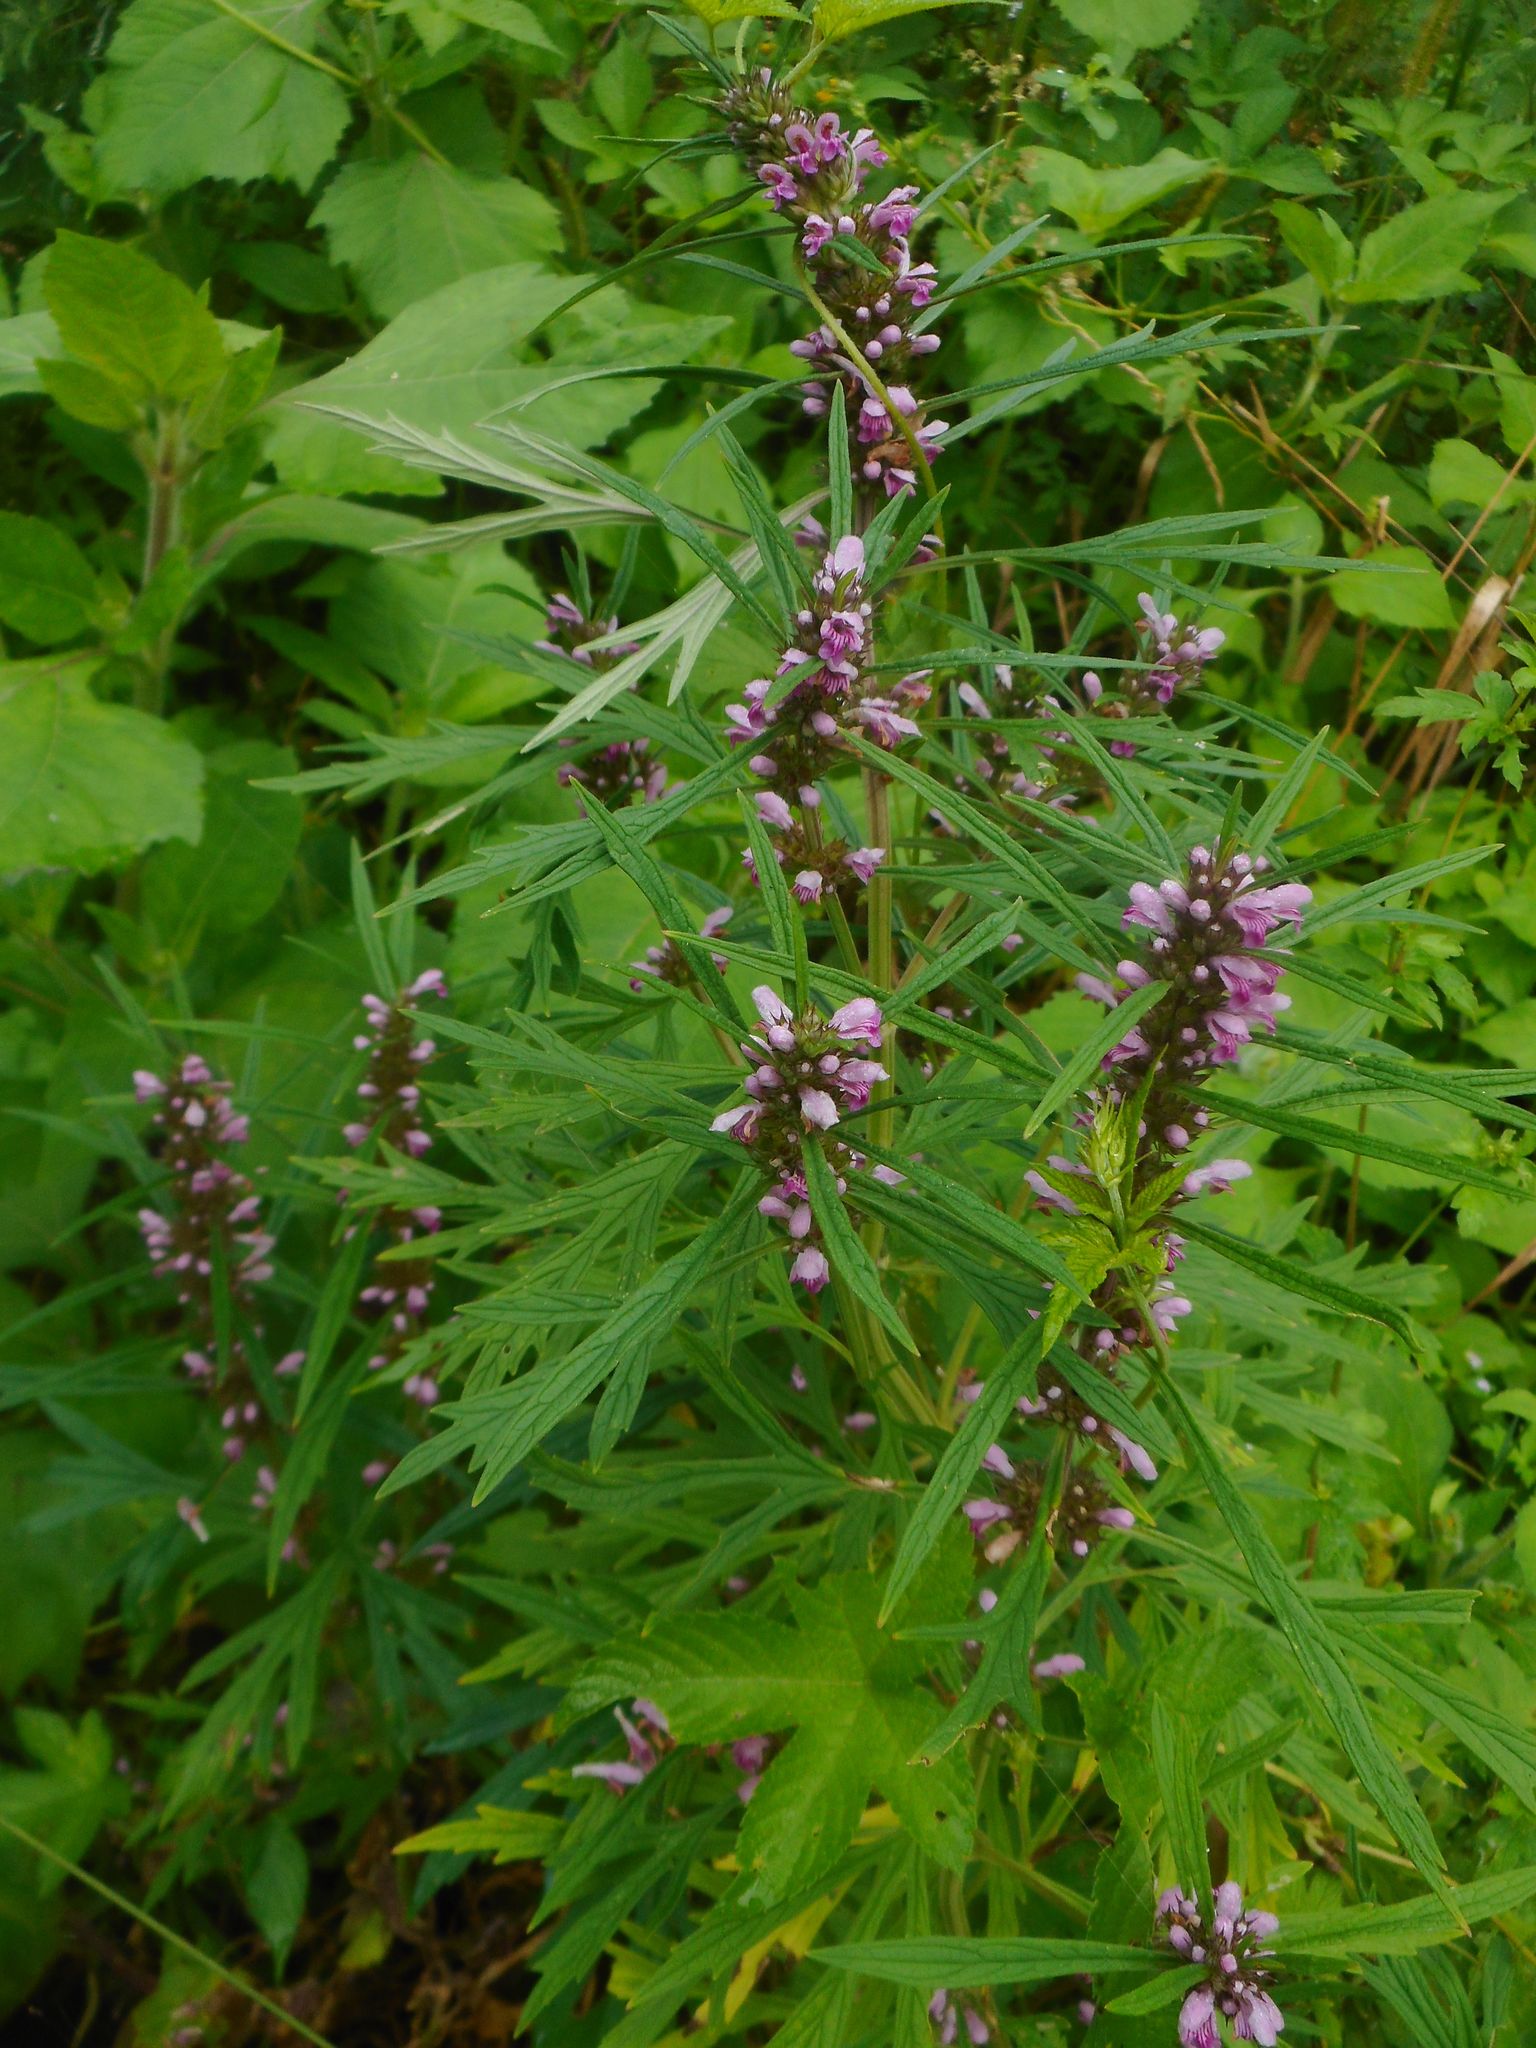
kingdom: Plantae
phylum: Tracheophyta
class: Magnoliopsida
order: Lamiales
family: Lamiaceae
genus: Leonurus
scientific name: Leonurus japonicus
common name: Honeyweed
